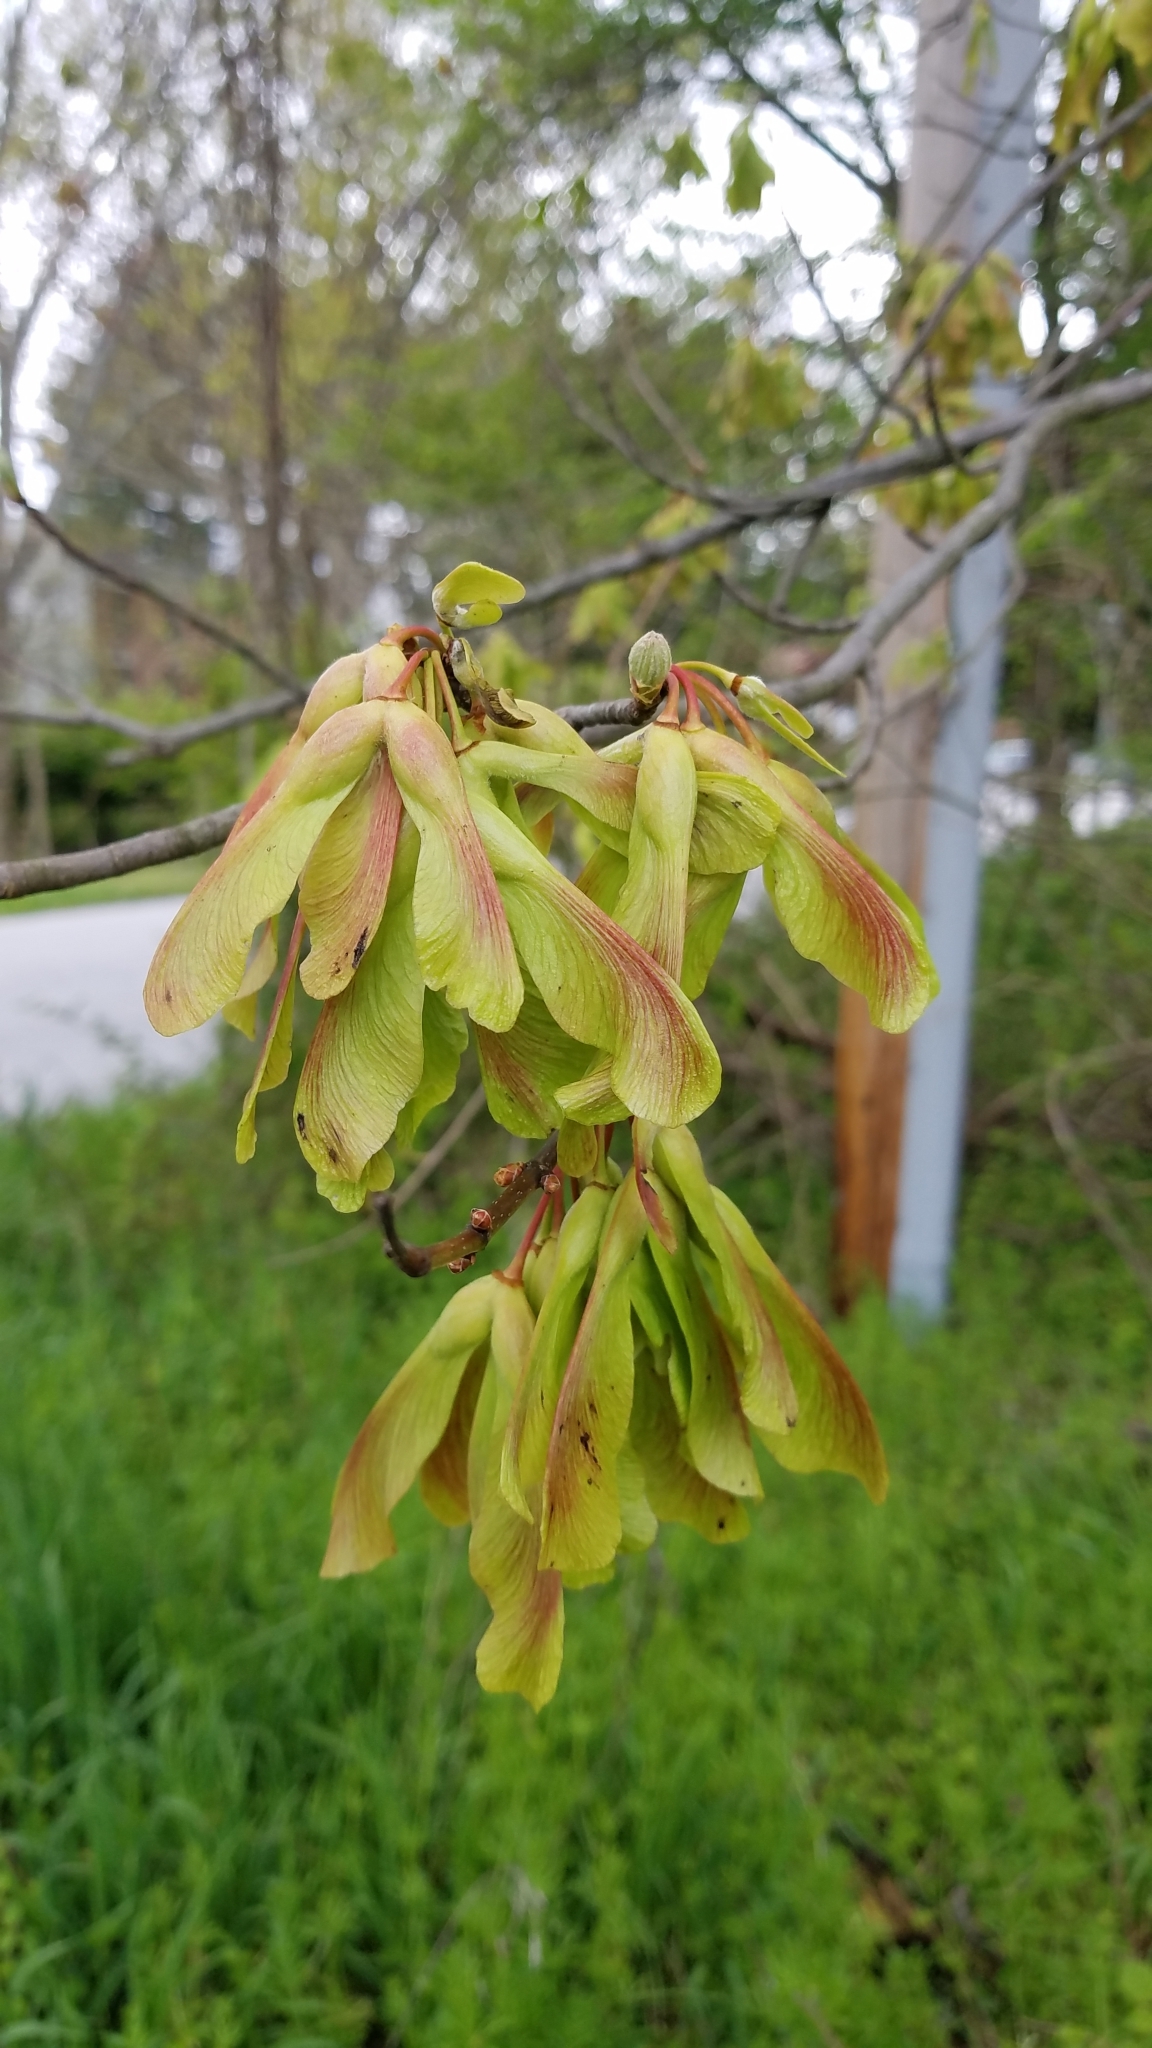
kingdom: Plantae
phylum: Tracheophyta
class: Magnoliopsida
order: Sapindales
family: Sapindaceae
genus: Acer
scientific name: Acer rubrum
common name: Red maple
